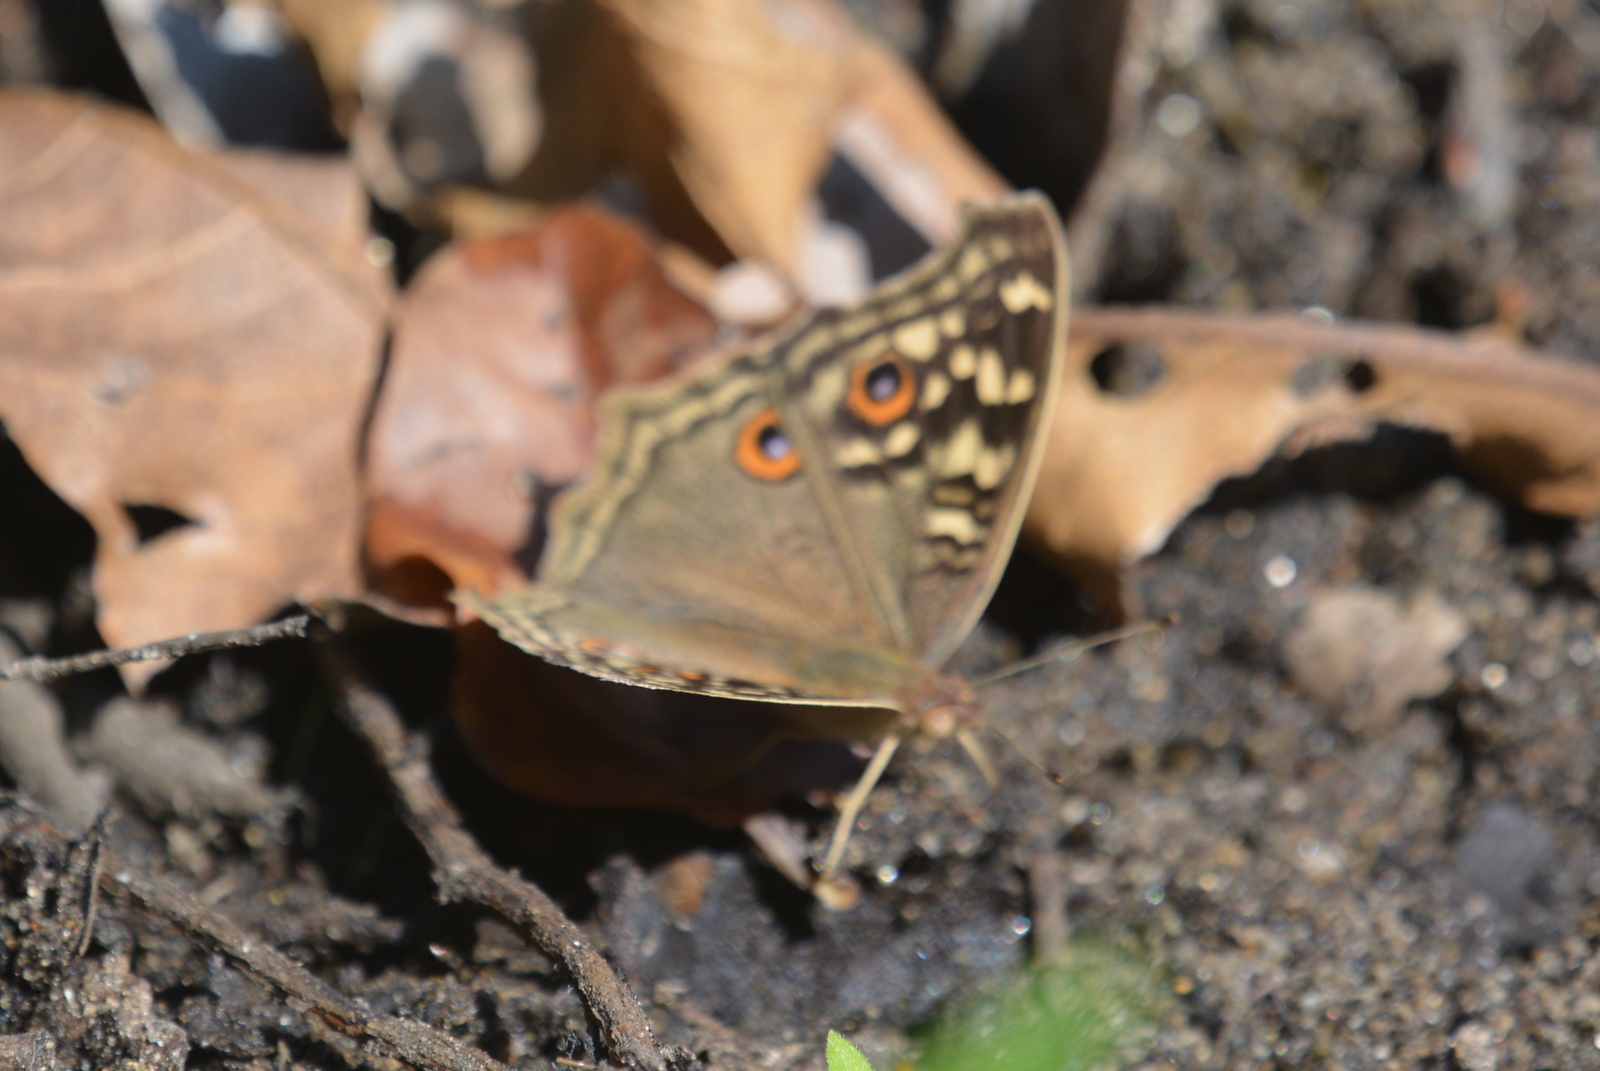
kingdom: Animalia
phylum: Arthropoda
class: Insecta
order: Lepidoptera
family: Nymphalidae
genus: Junonia
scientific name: Junonia lemonias
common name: Lemon pansy
